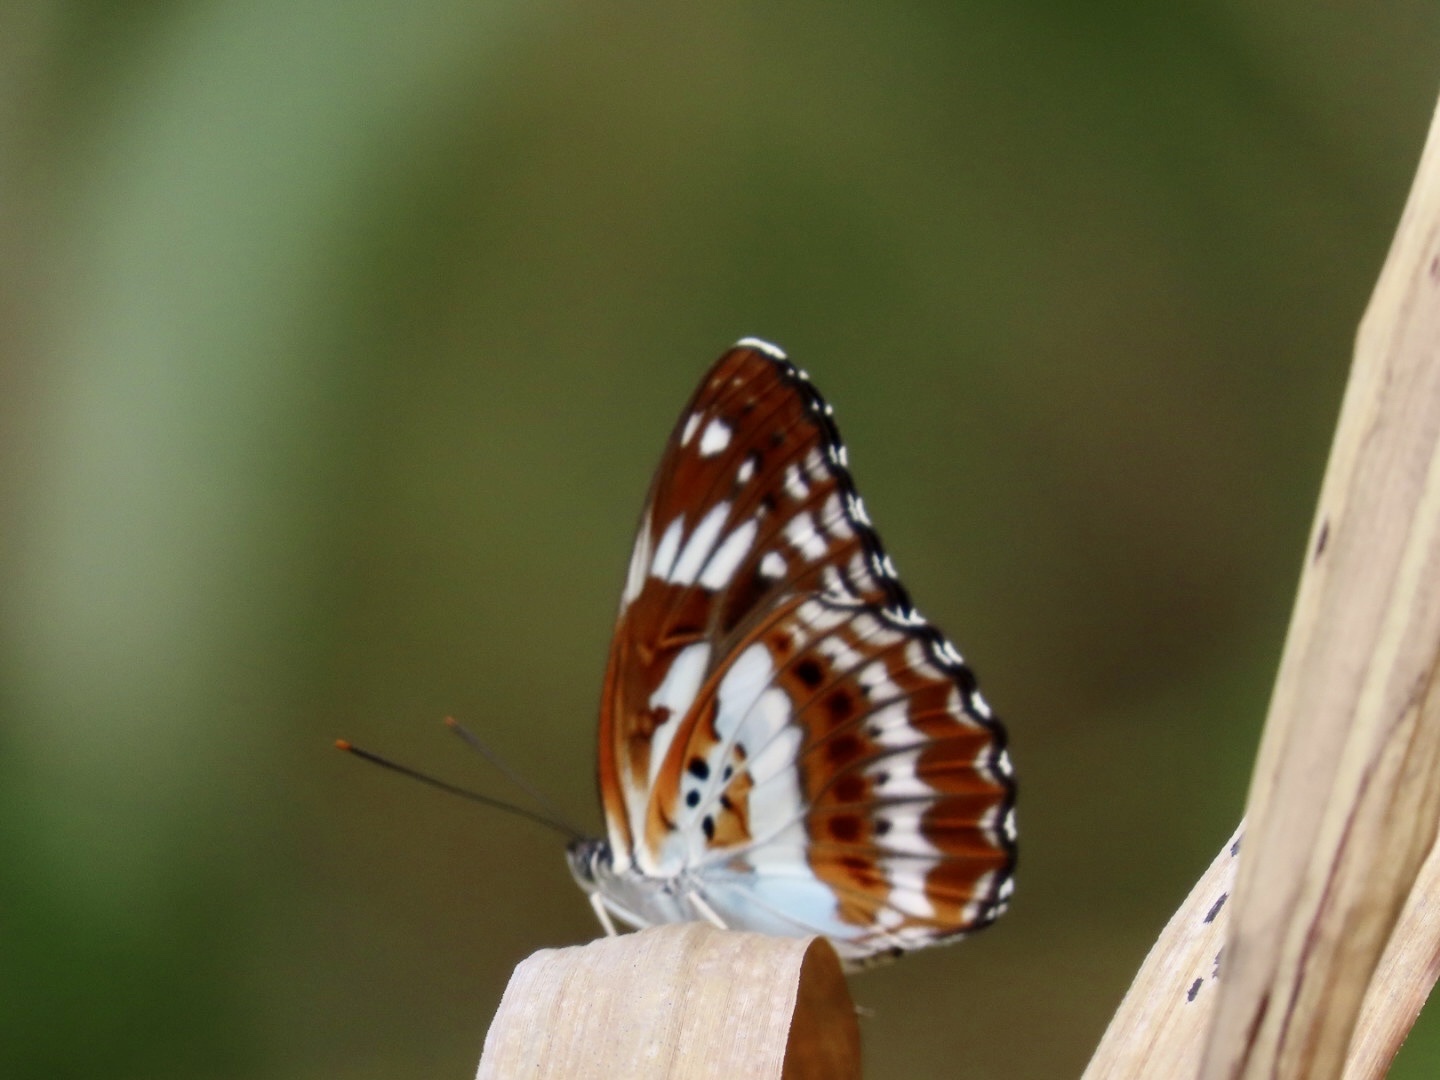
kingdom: Animalia
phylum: Arthropoda
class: Insecta
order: Lepidoptera
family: Nymphalidae
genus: Limenitis
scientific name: Limenitis sulpitia
